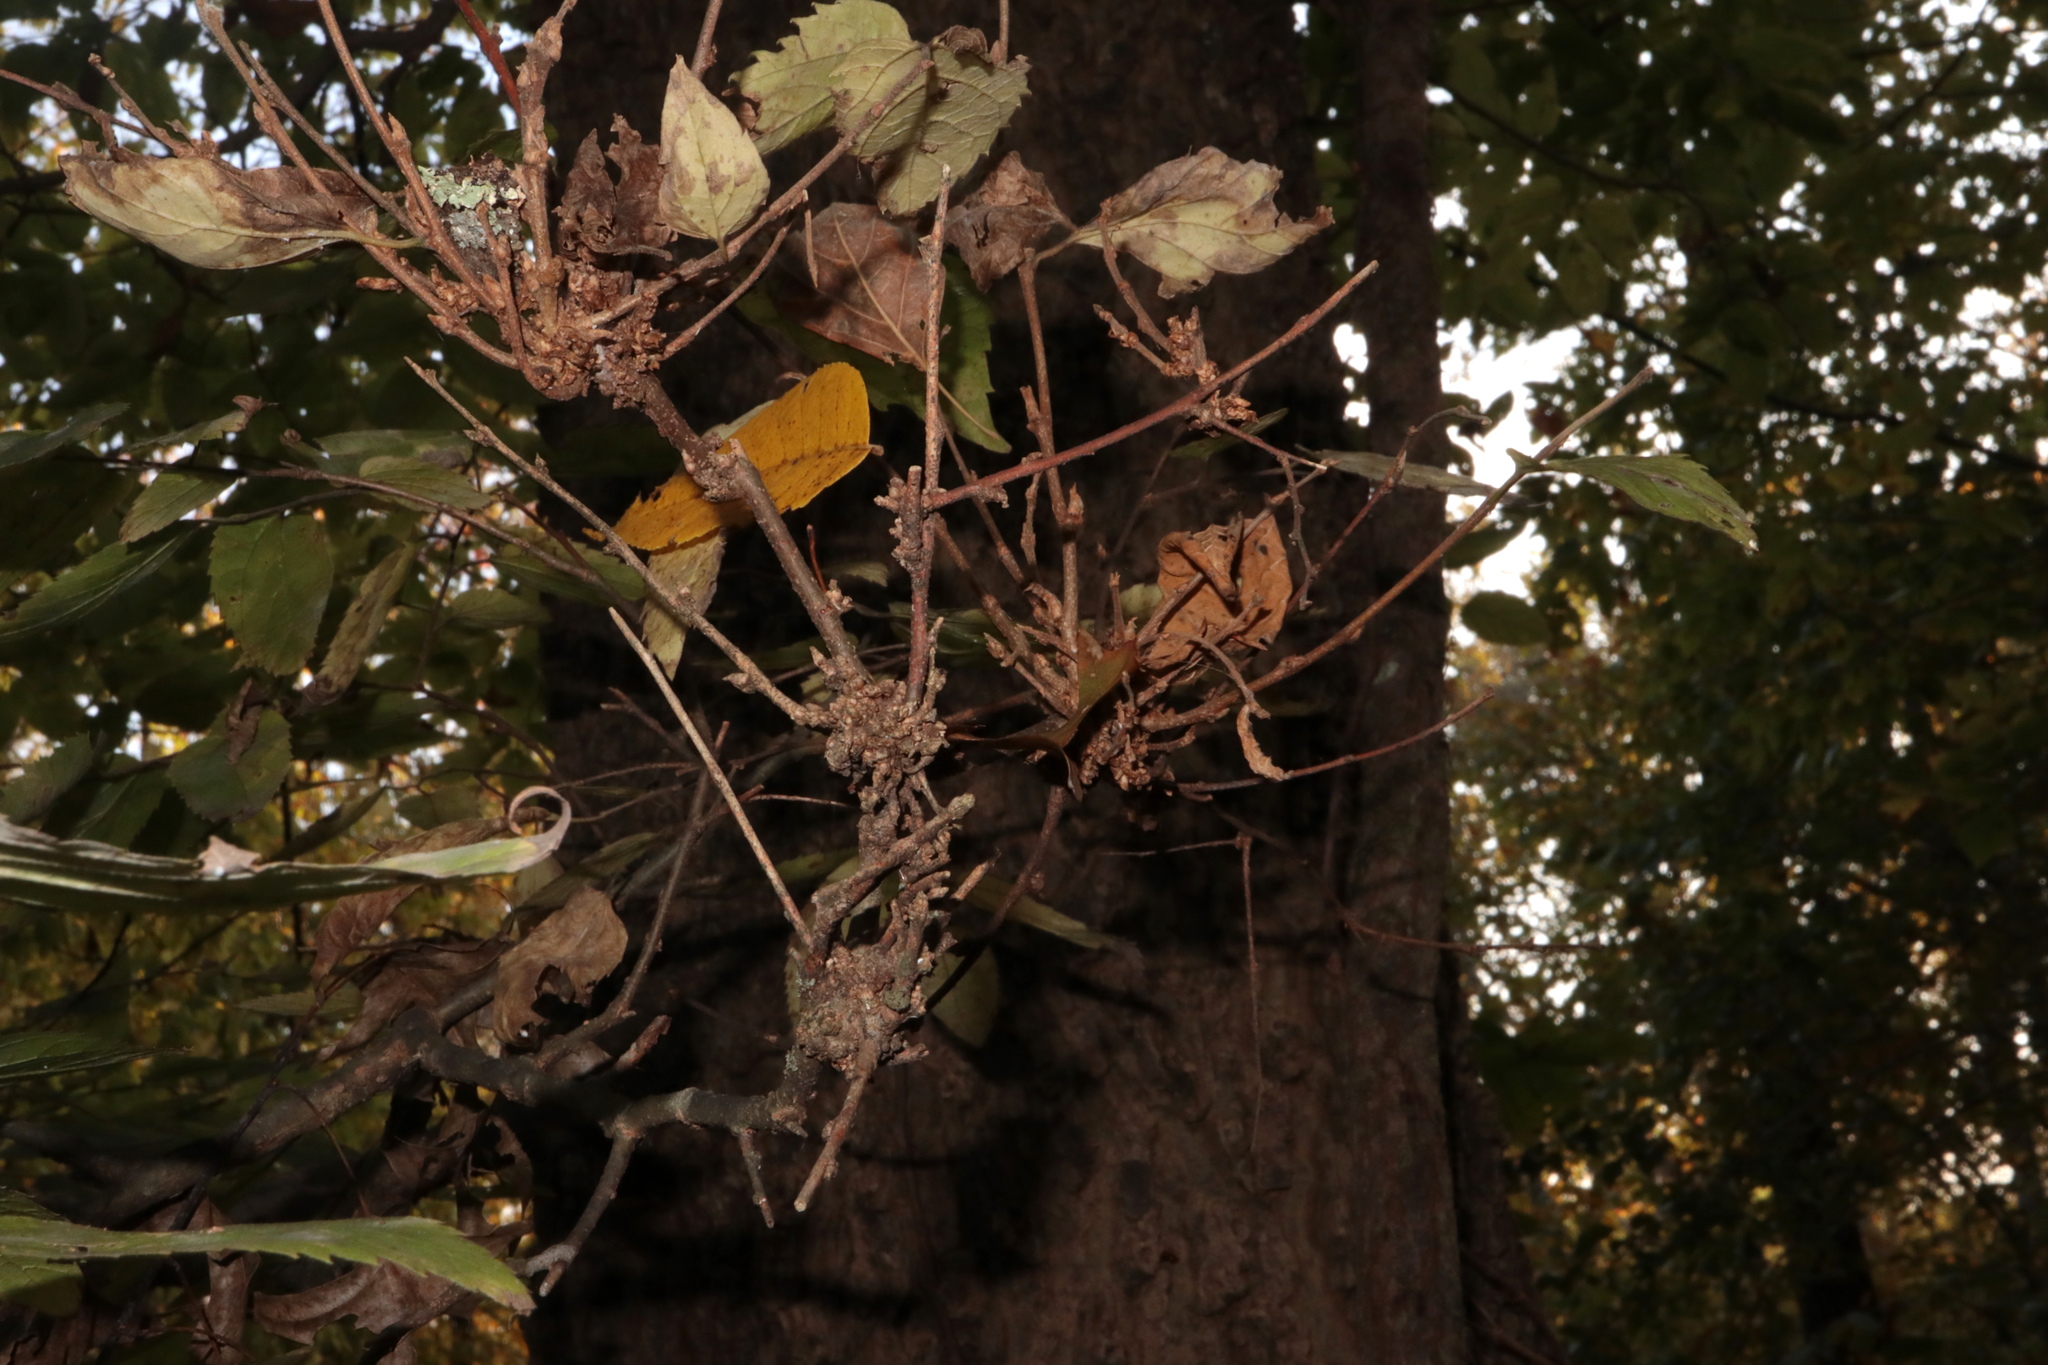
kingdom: Animalia
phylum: Arthropoda
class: Arachnida
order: Trombidiformes
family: Eriophyidae
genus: Aceria
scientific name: Aceria
